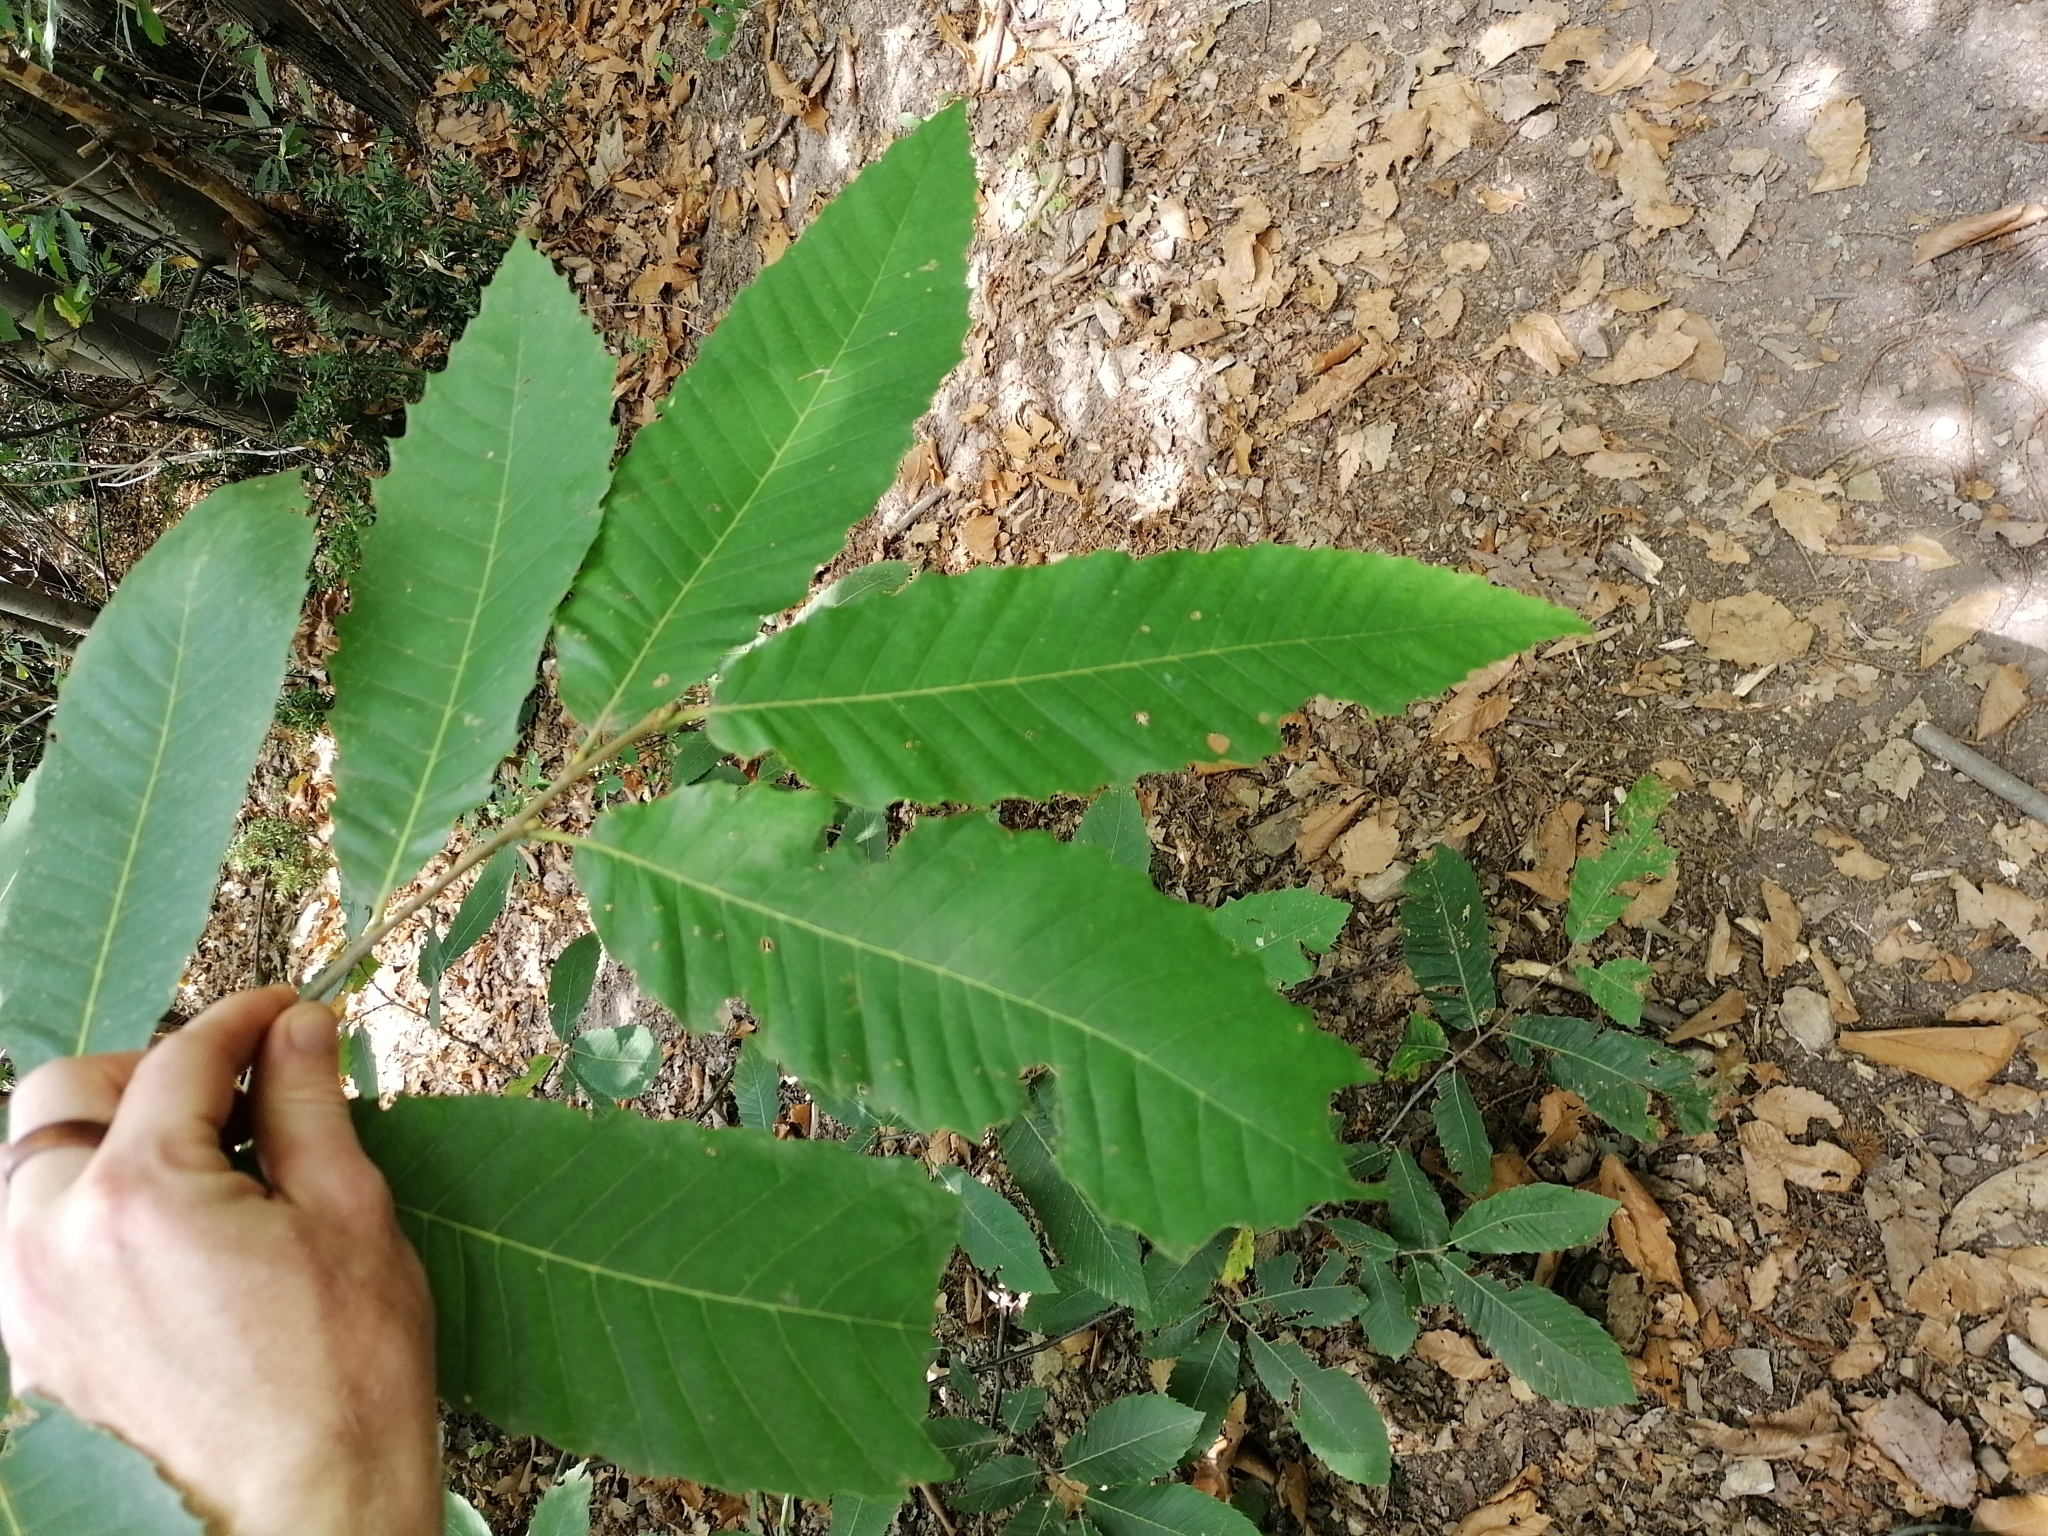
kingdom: Plantae
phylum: Tracheophyta
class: Magnoliopsida
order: Fagales
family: Fagaceae
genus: Castanea
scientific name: Castanea sativa
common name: Sweet chestnut
